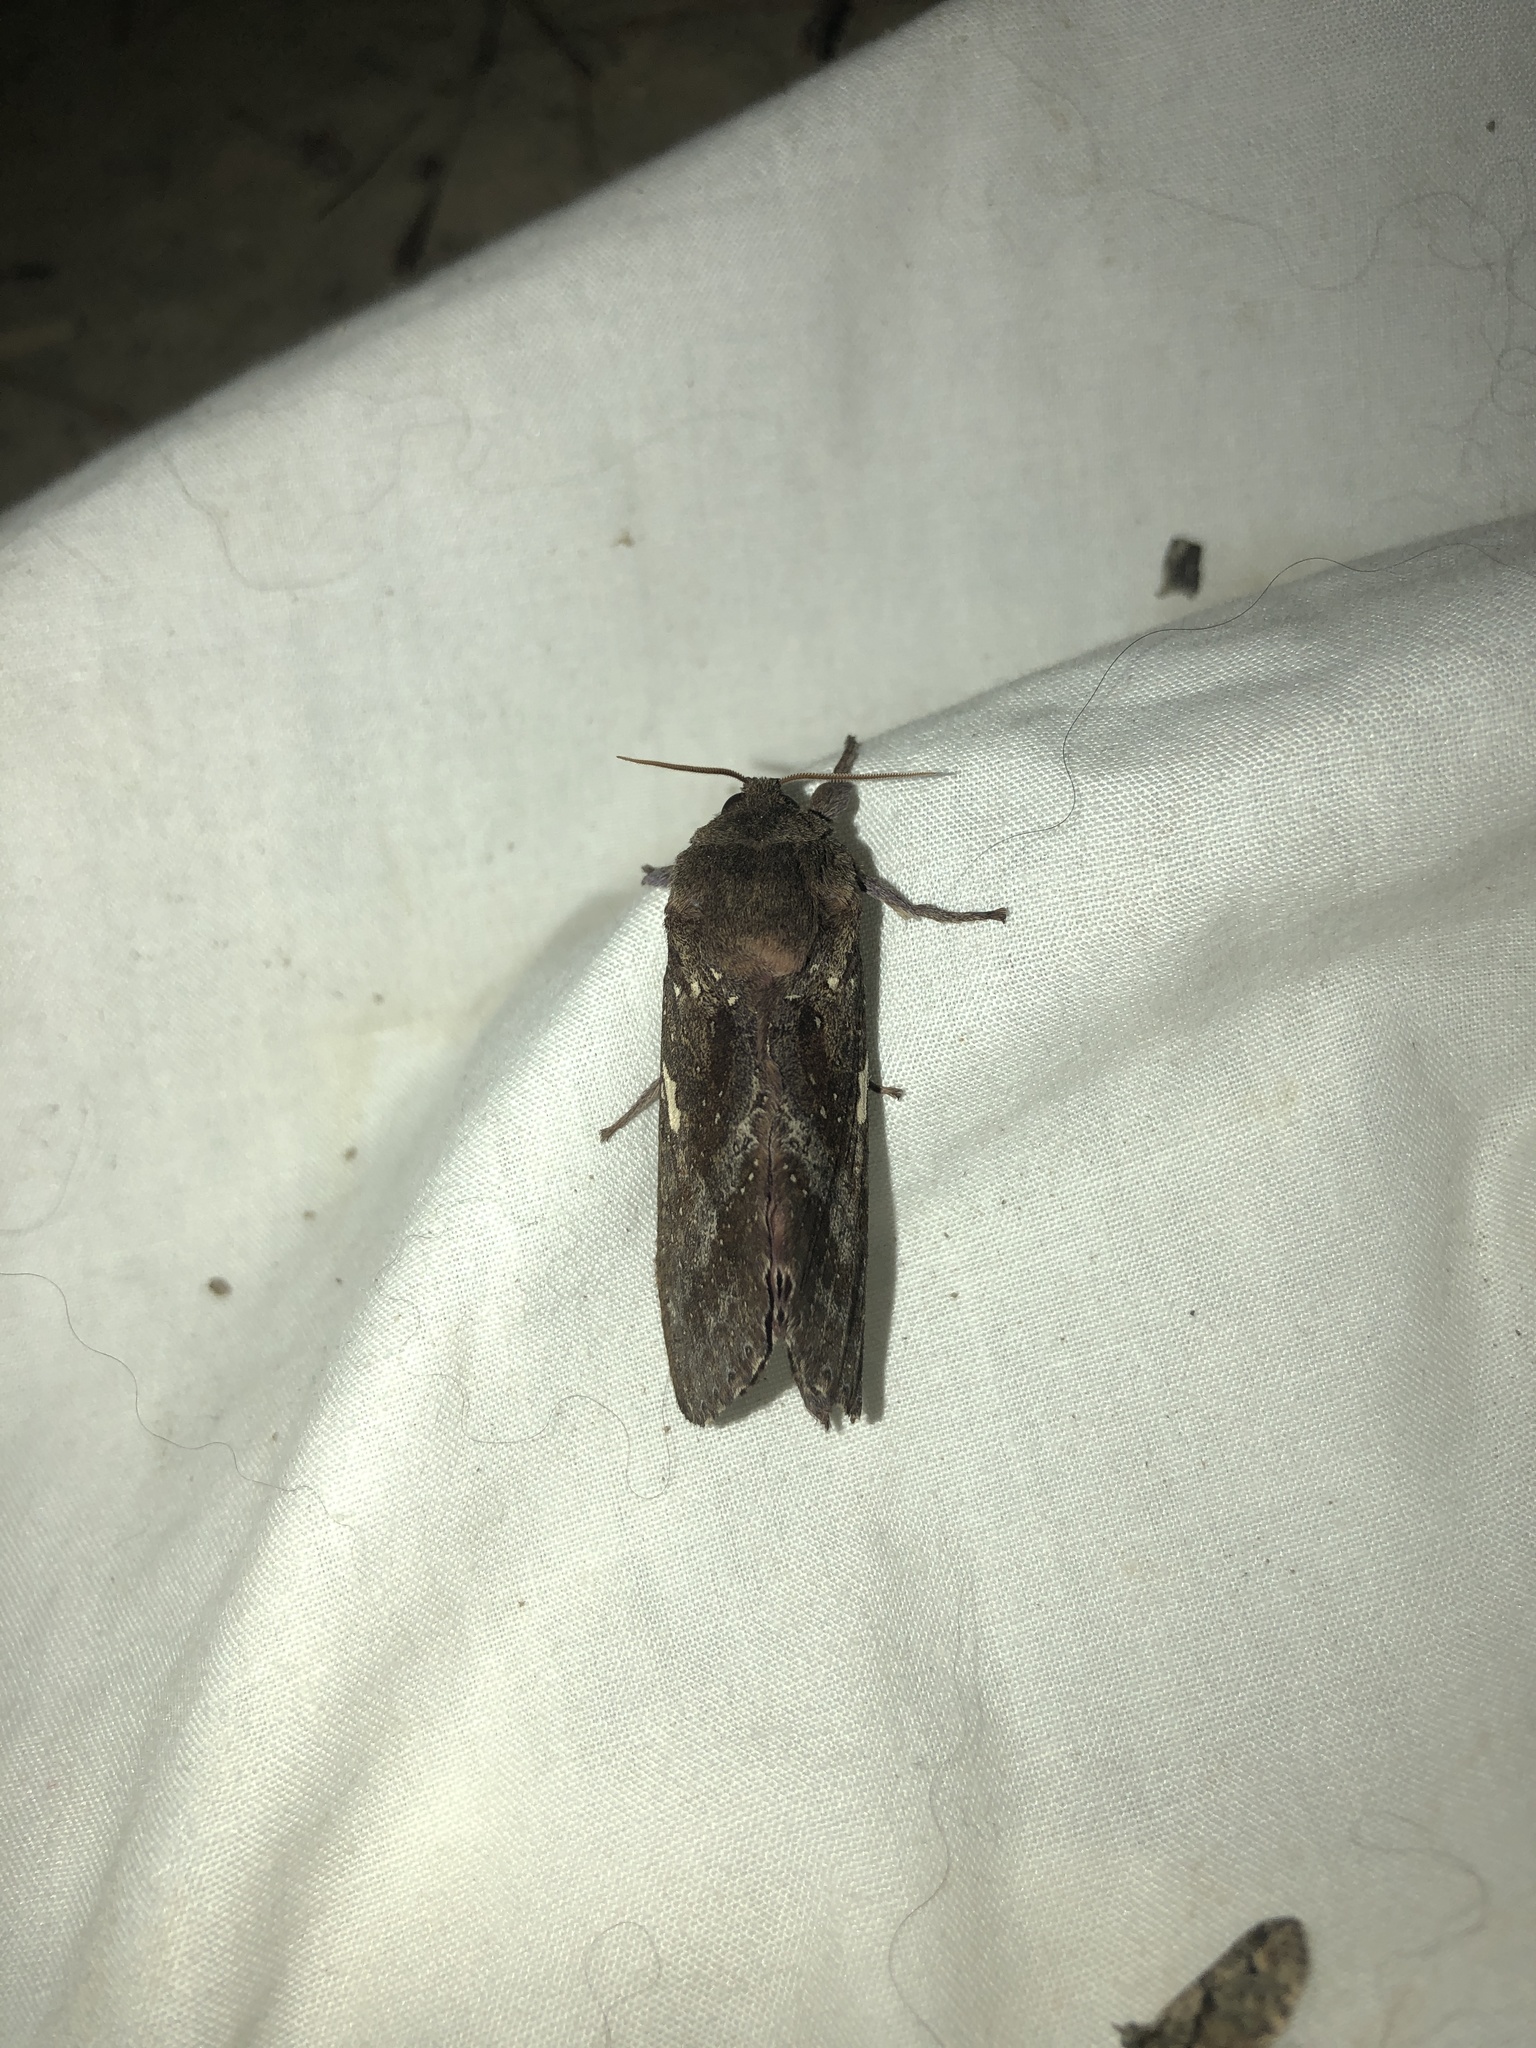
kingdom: Animalia
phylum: Arthropoda
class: Insecta
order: Lepidoptera
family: Hepialidae
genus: Dumbletonius
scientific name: Dumbletonius unimaculata
